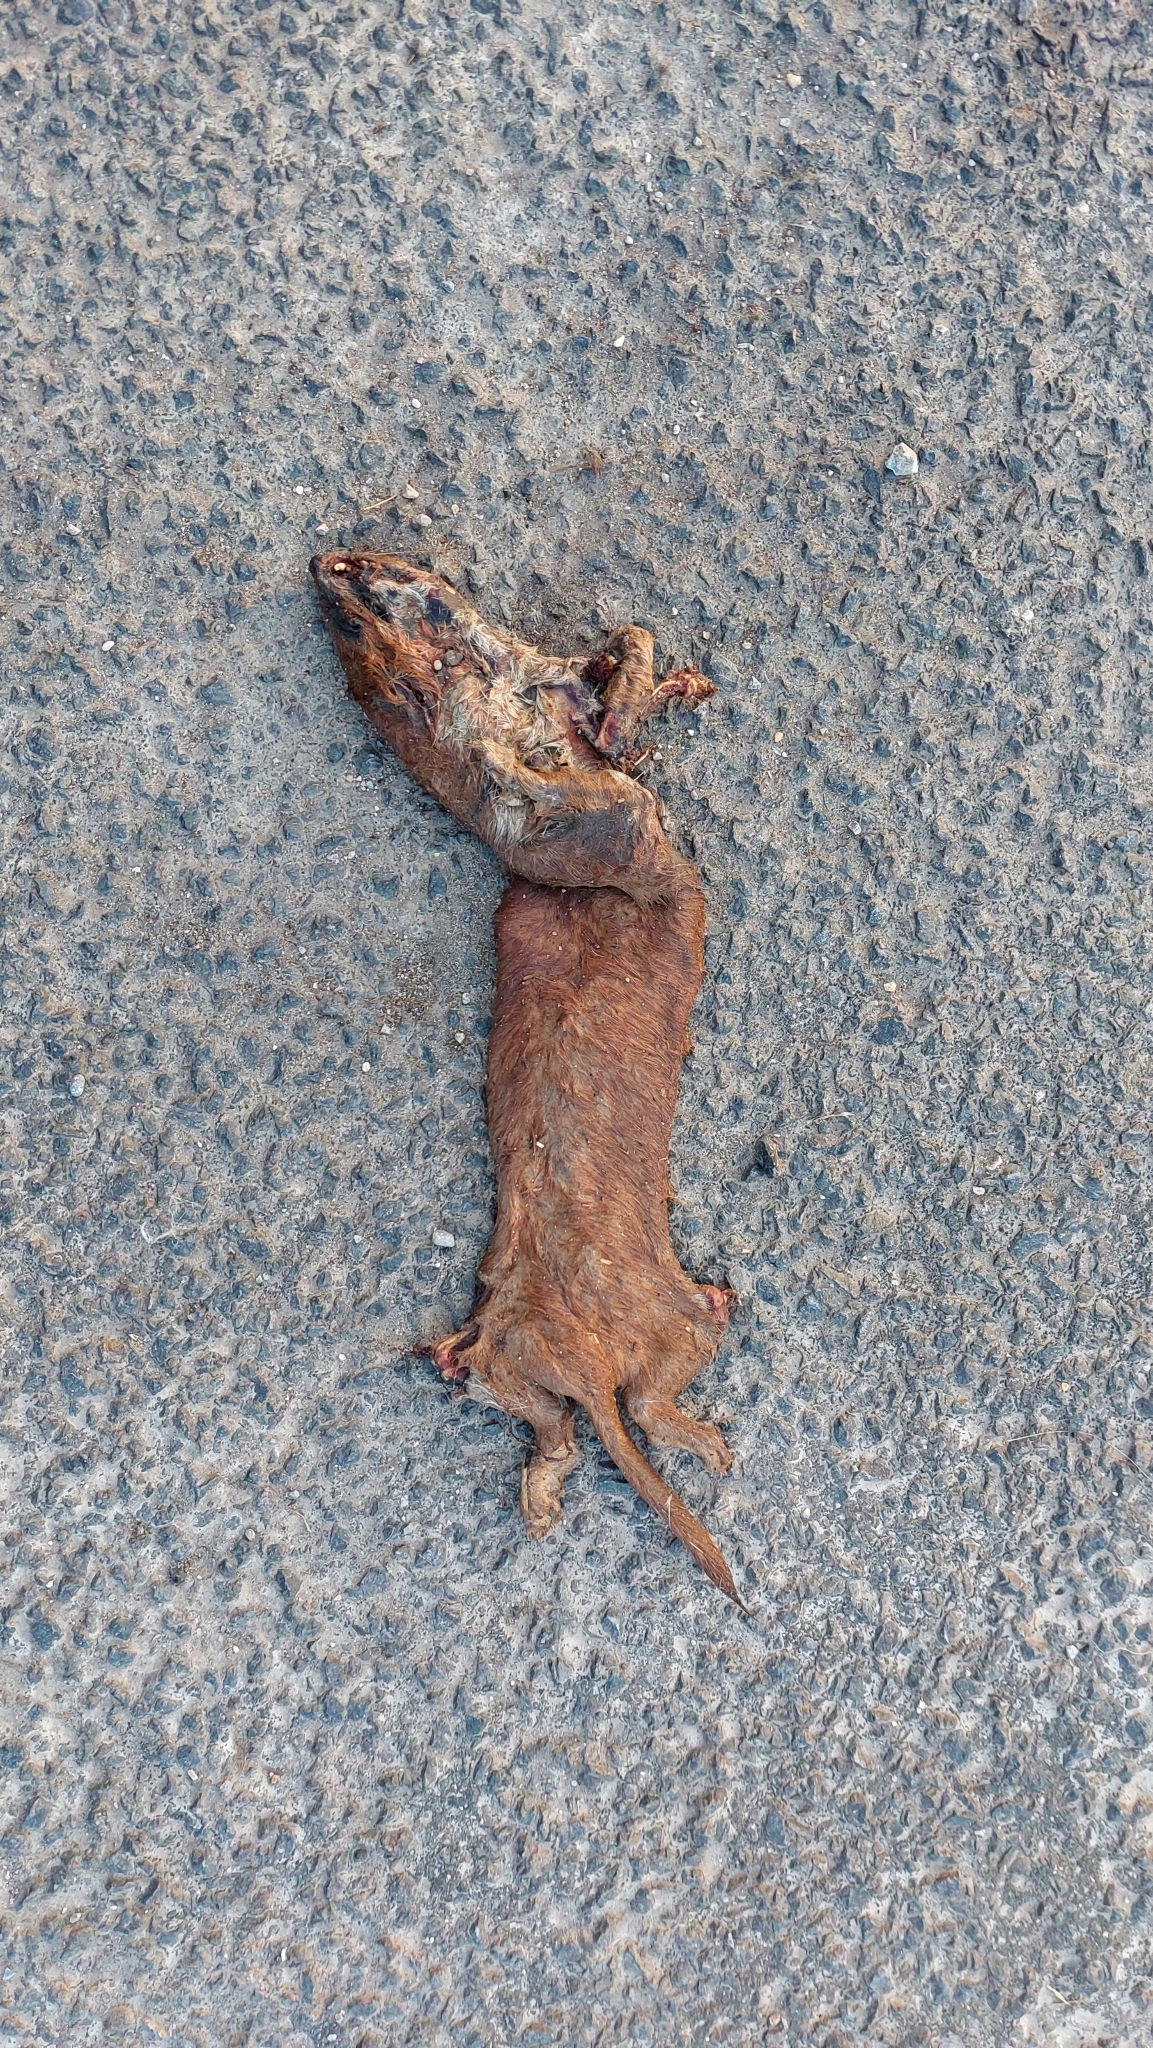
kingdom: Animalia
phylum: Chordata
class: Mammalia
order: Carnivora
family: Mustelidae
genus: Mustela
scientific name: Mustela nivalis
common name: Least weasel
